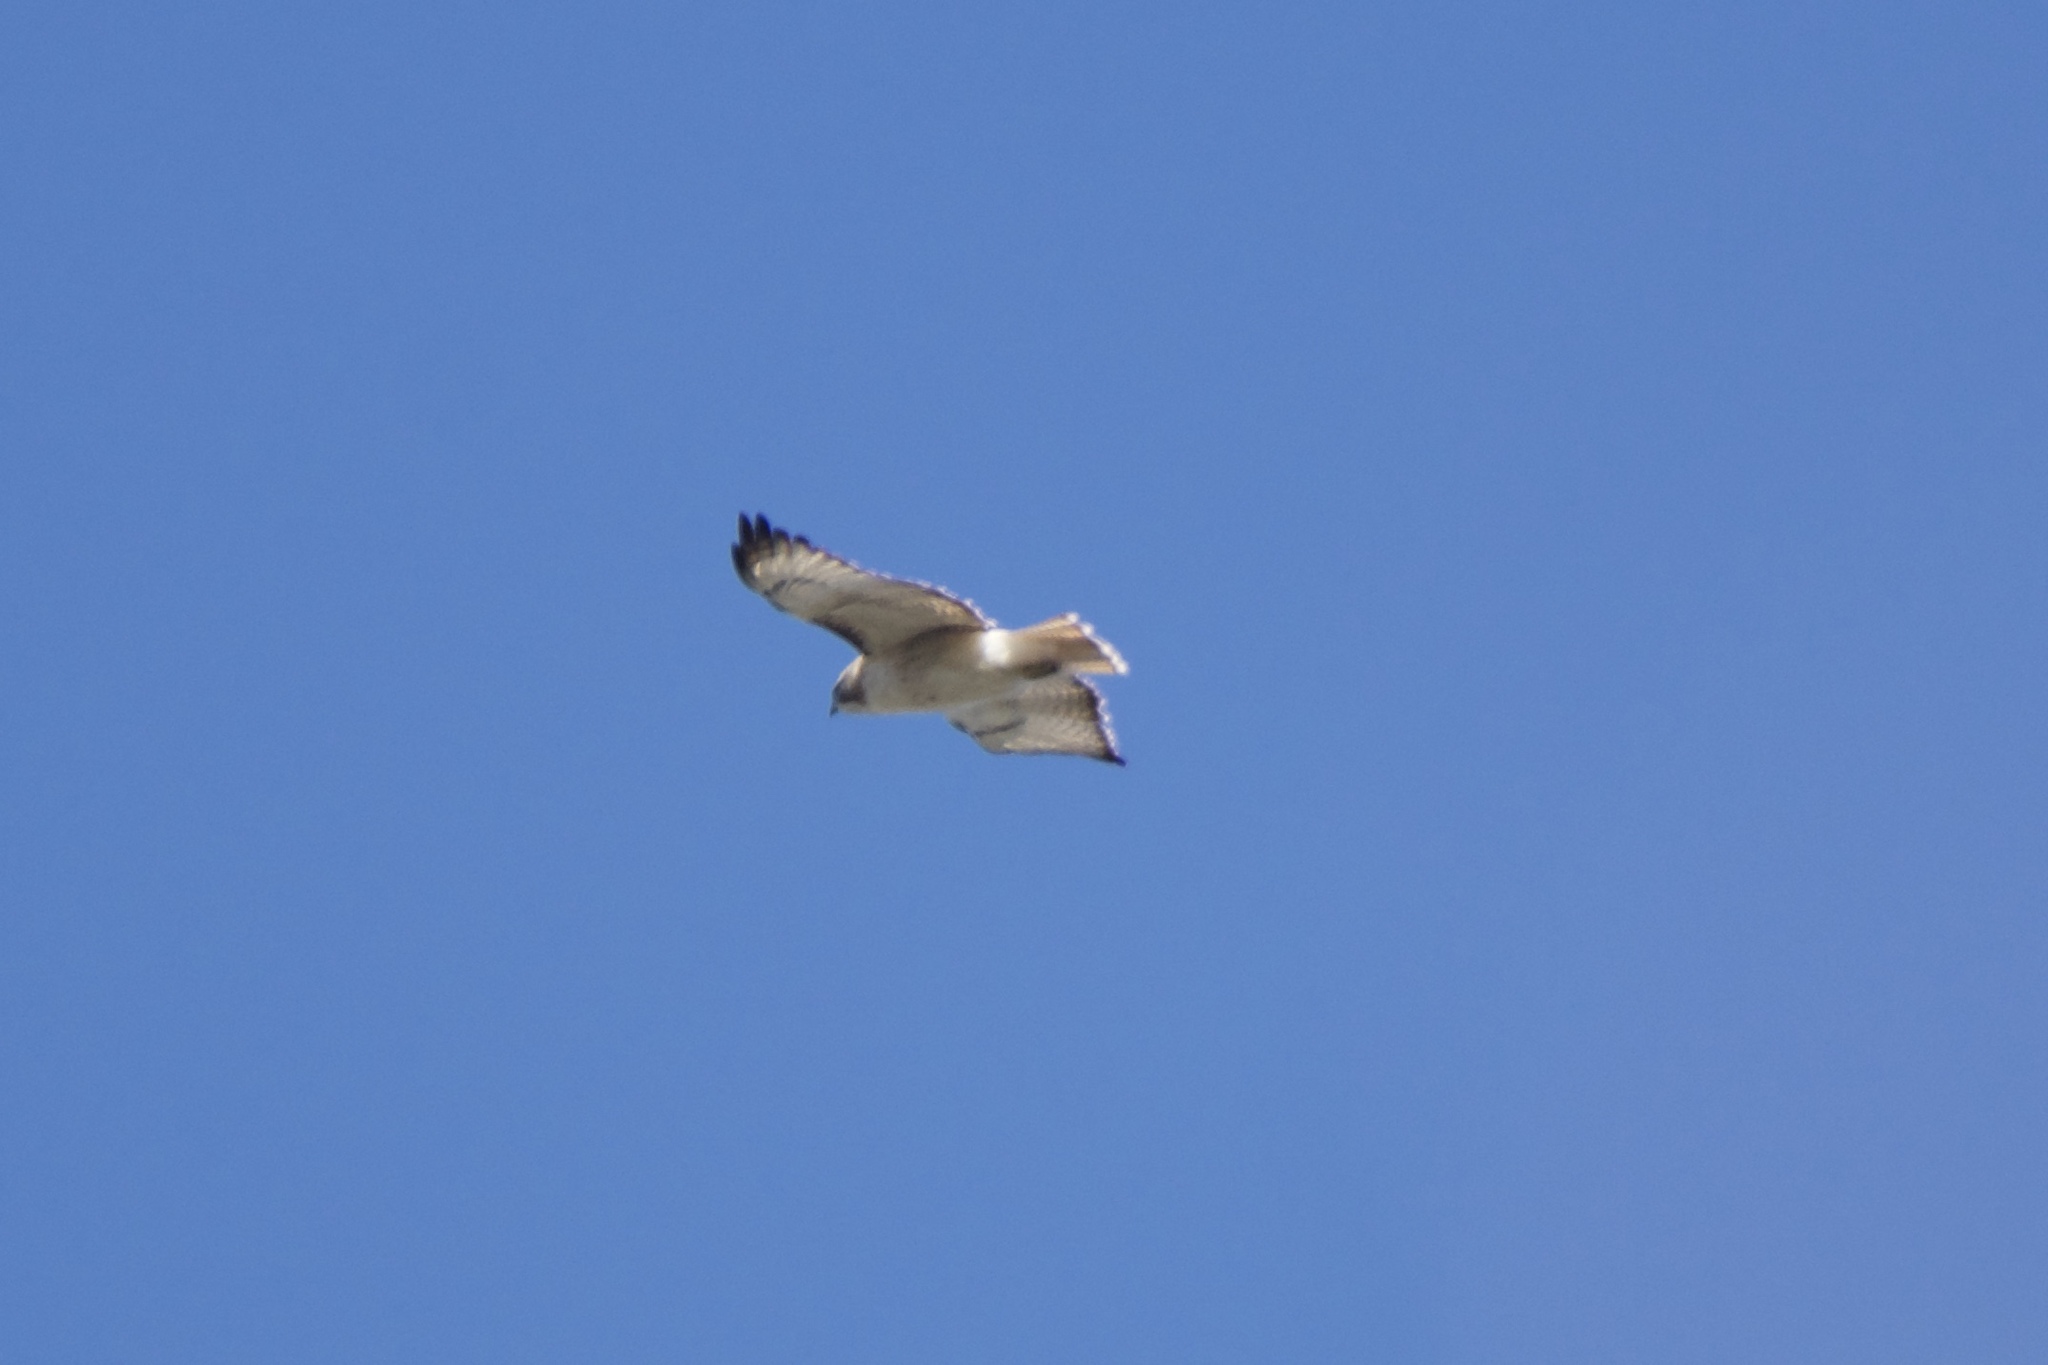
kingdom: Animalia
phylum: Chordata
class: Aves
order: Accipitriformes
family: Accipitridae
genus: Buteo
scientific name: Buteo jamaicensis
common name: Red-tailed hawk
